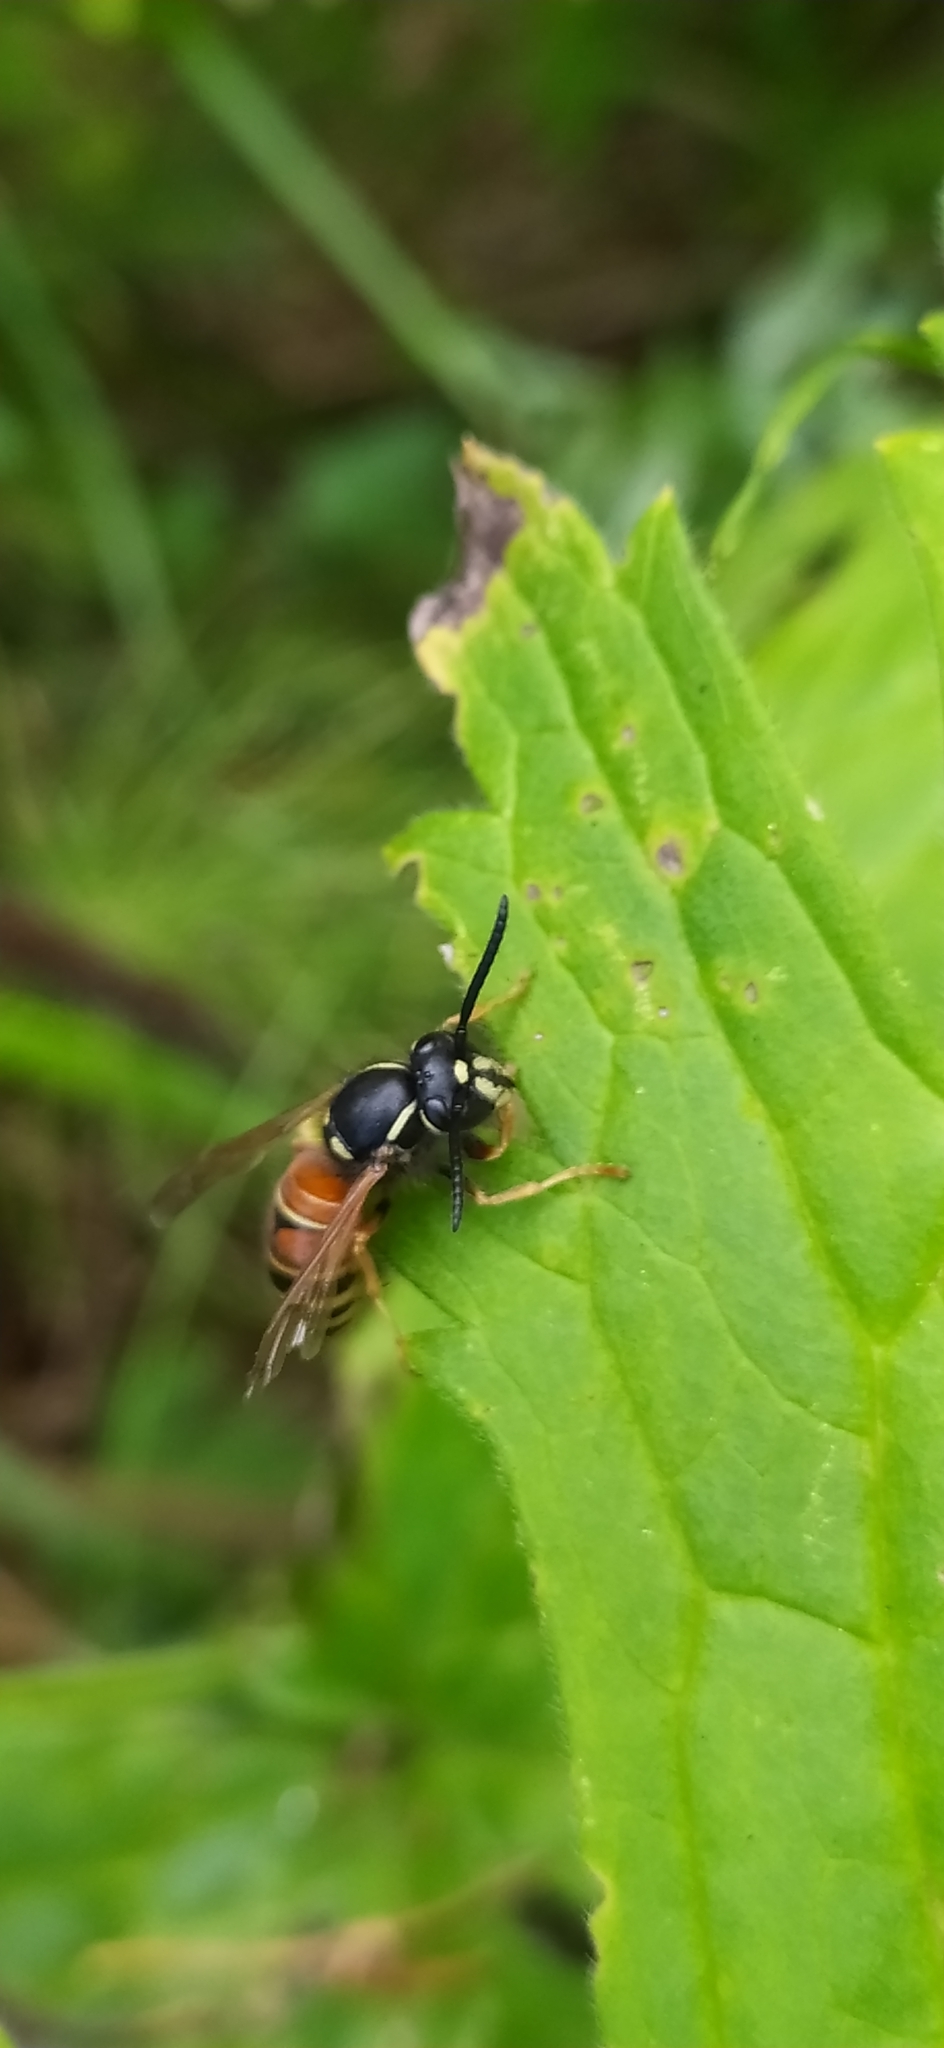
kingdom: Animalia
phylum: Arthropoda
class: Insecta
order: Hymenoptera
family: Vespidae
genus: Vespula
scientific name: Vespula rufa
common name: Red wasp
